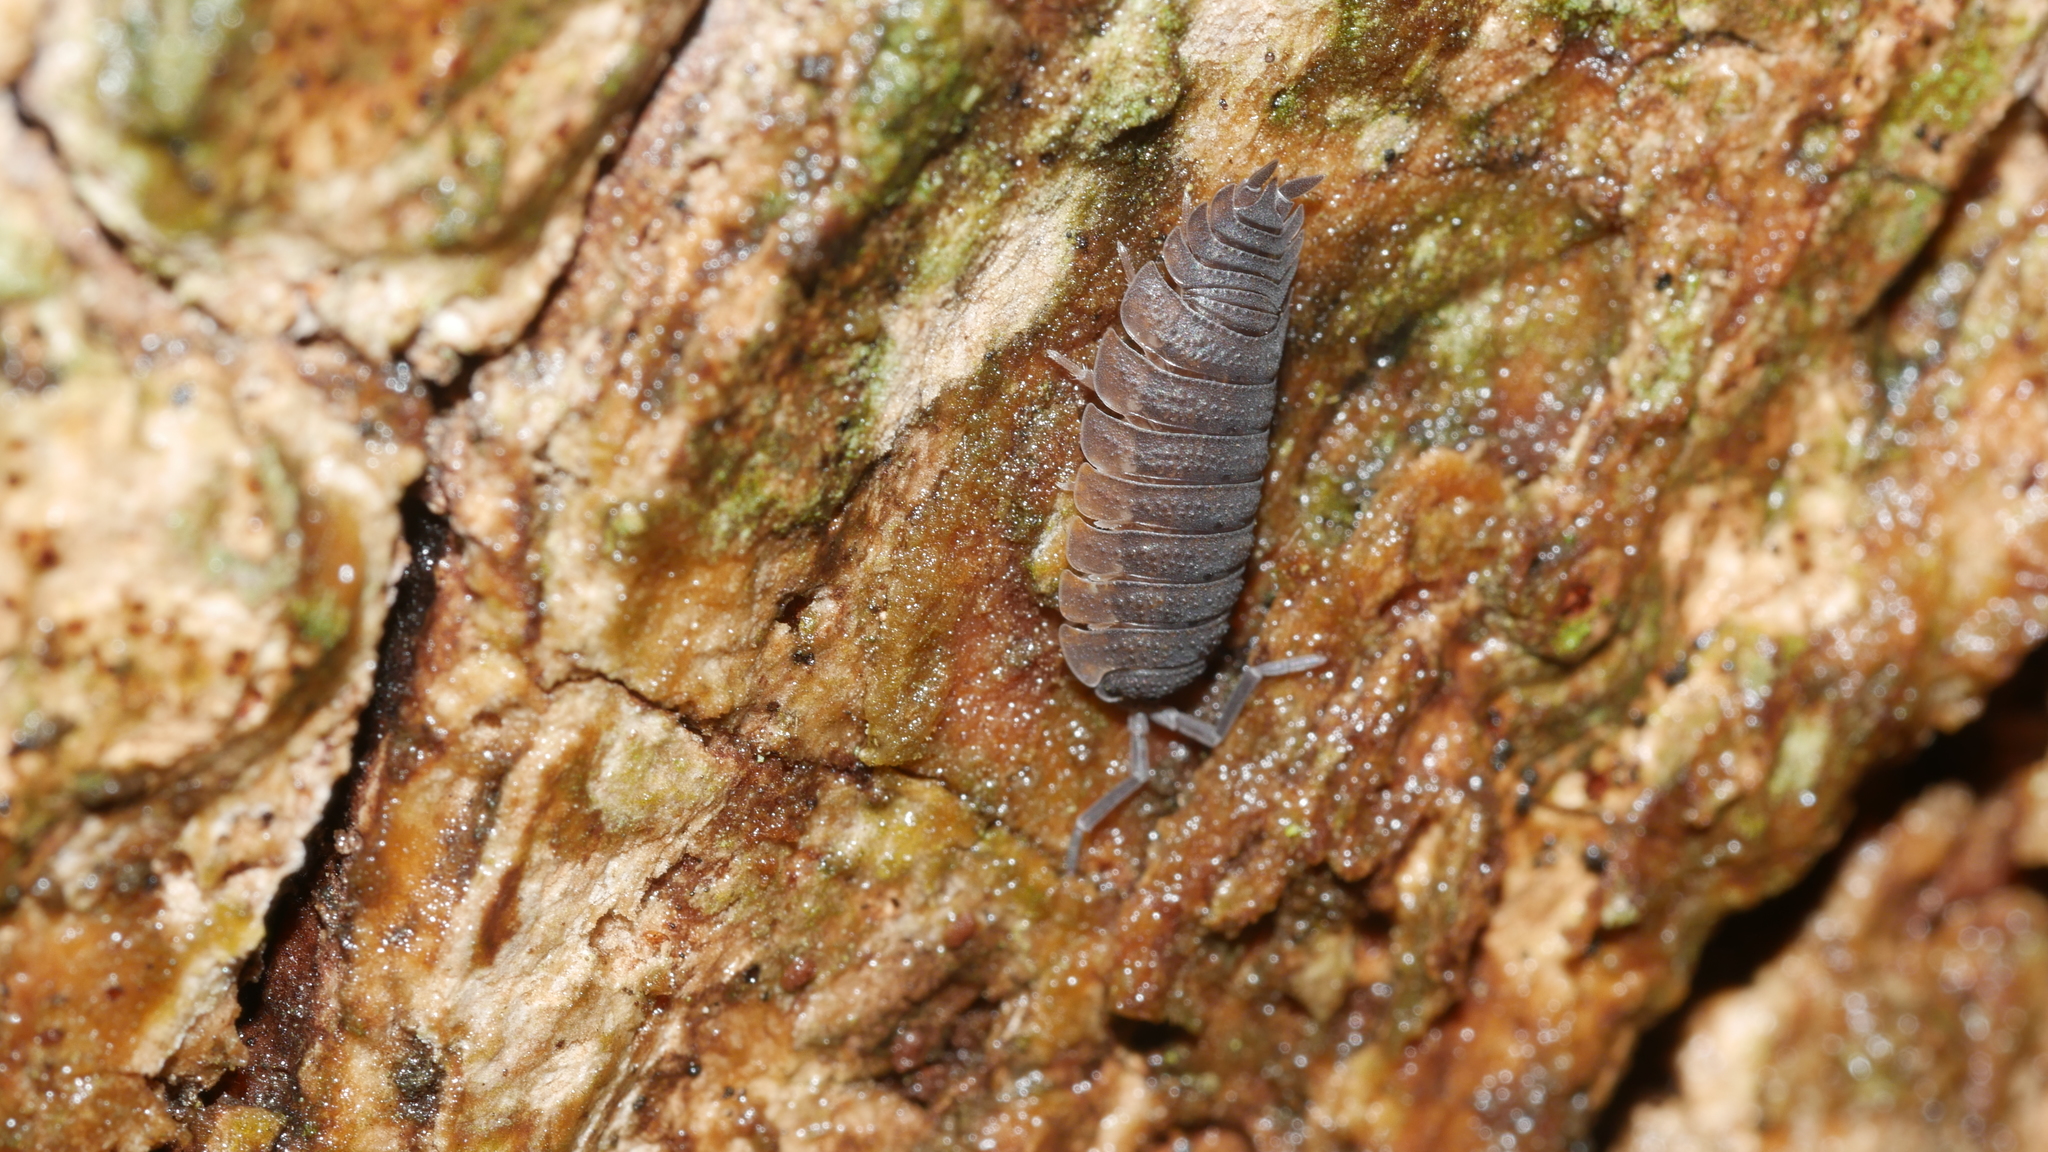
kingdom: Animalia
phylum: Arthropoda
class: Malacostraca
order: Isopoda
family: Porcellionidae
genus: Porcellio
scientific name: Porcellio scaber
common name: Common rough woodlouse
